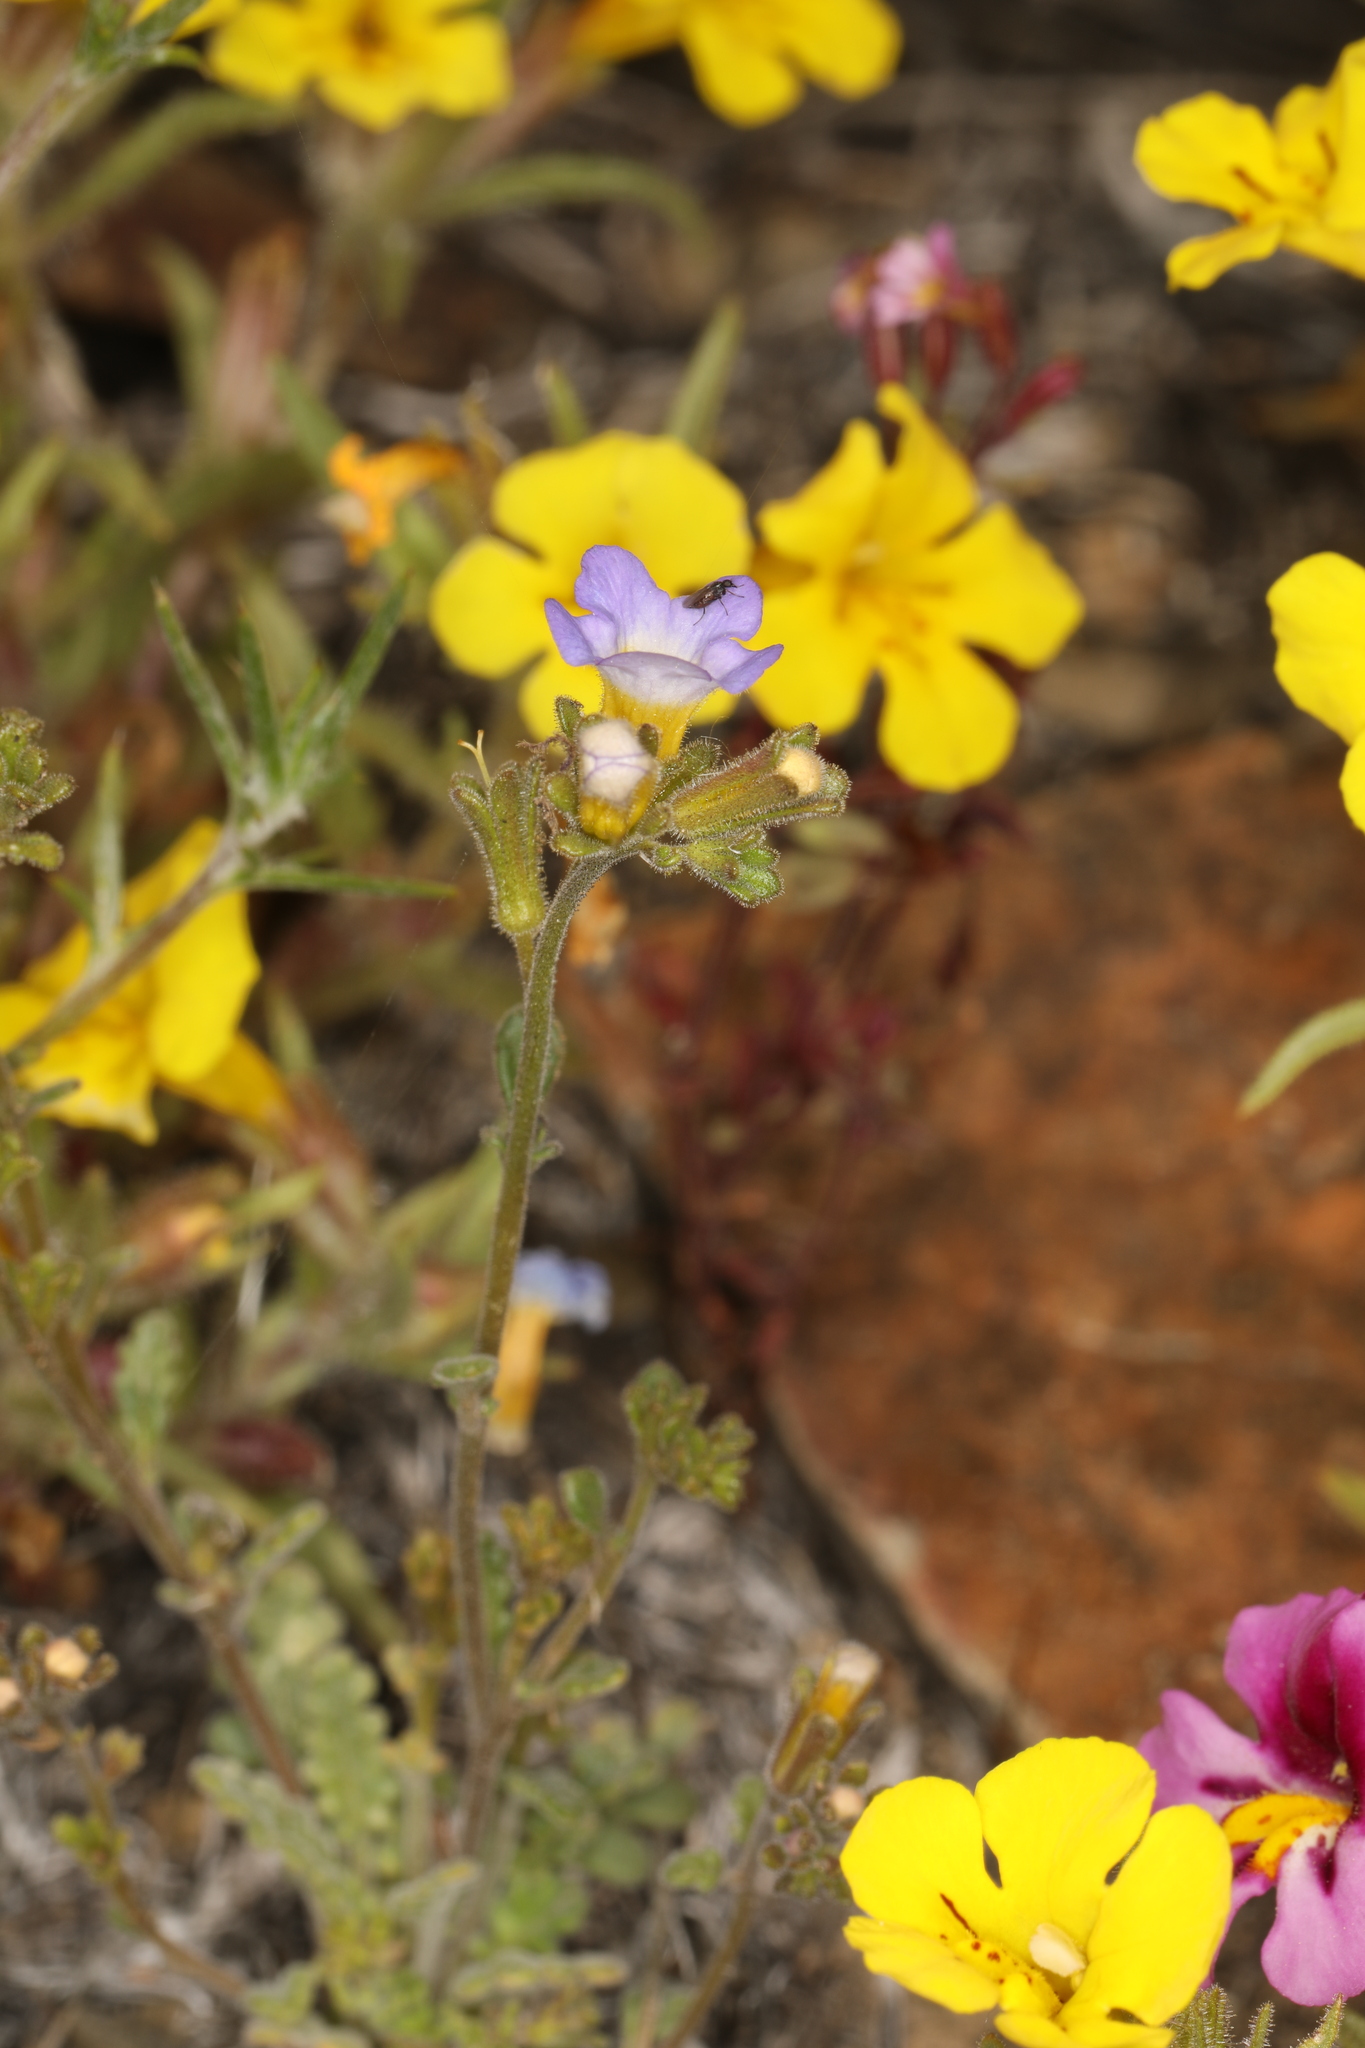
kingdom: Plantae
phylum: Tracheophyta
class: Magnoliopsida
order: Lamiales
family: Phrymaceae
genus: Diplacus
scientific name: Diplacus mephiticus
